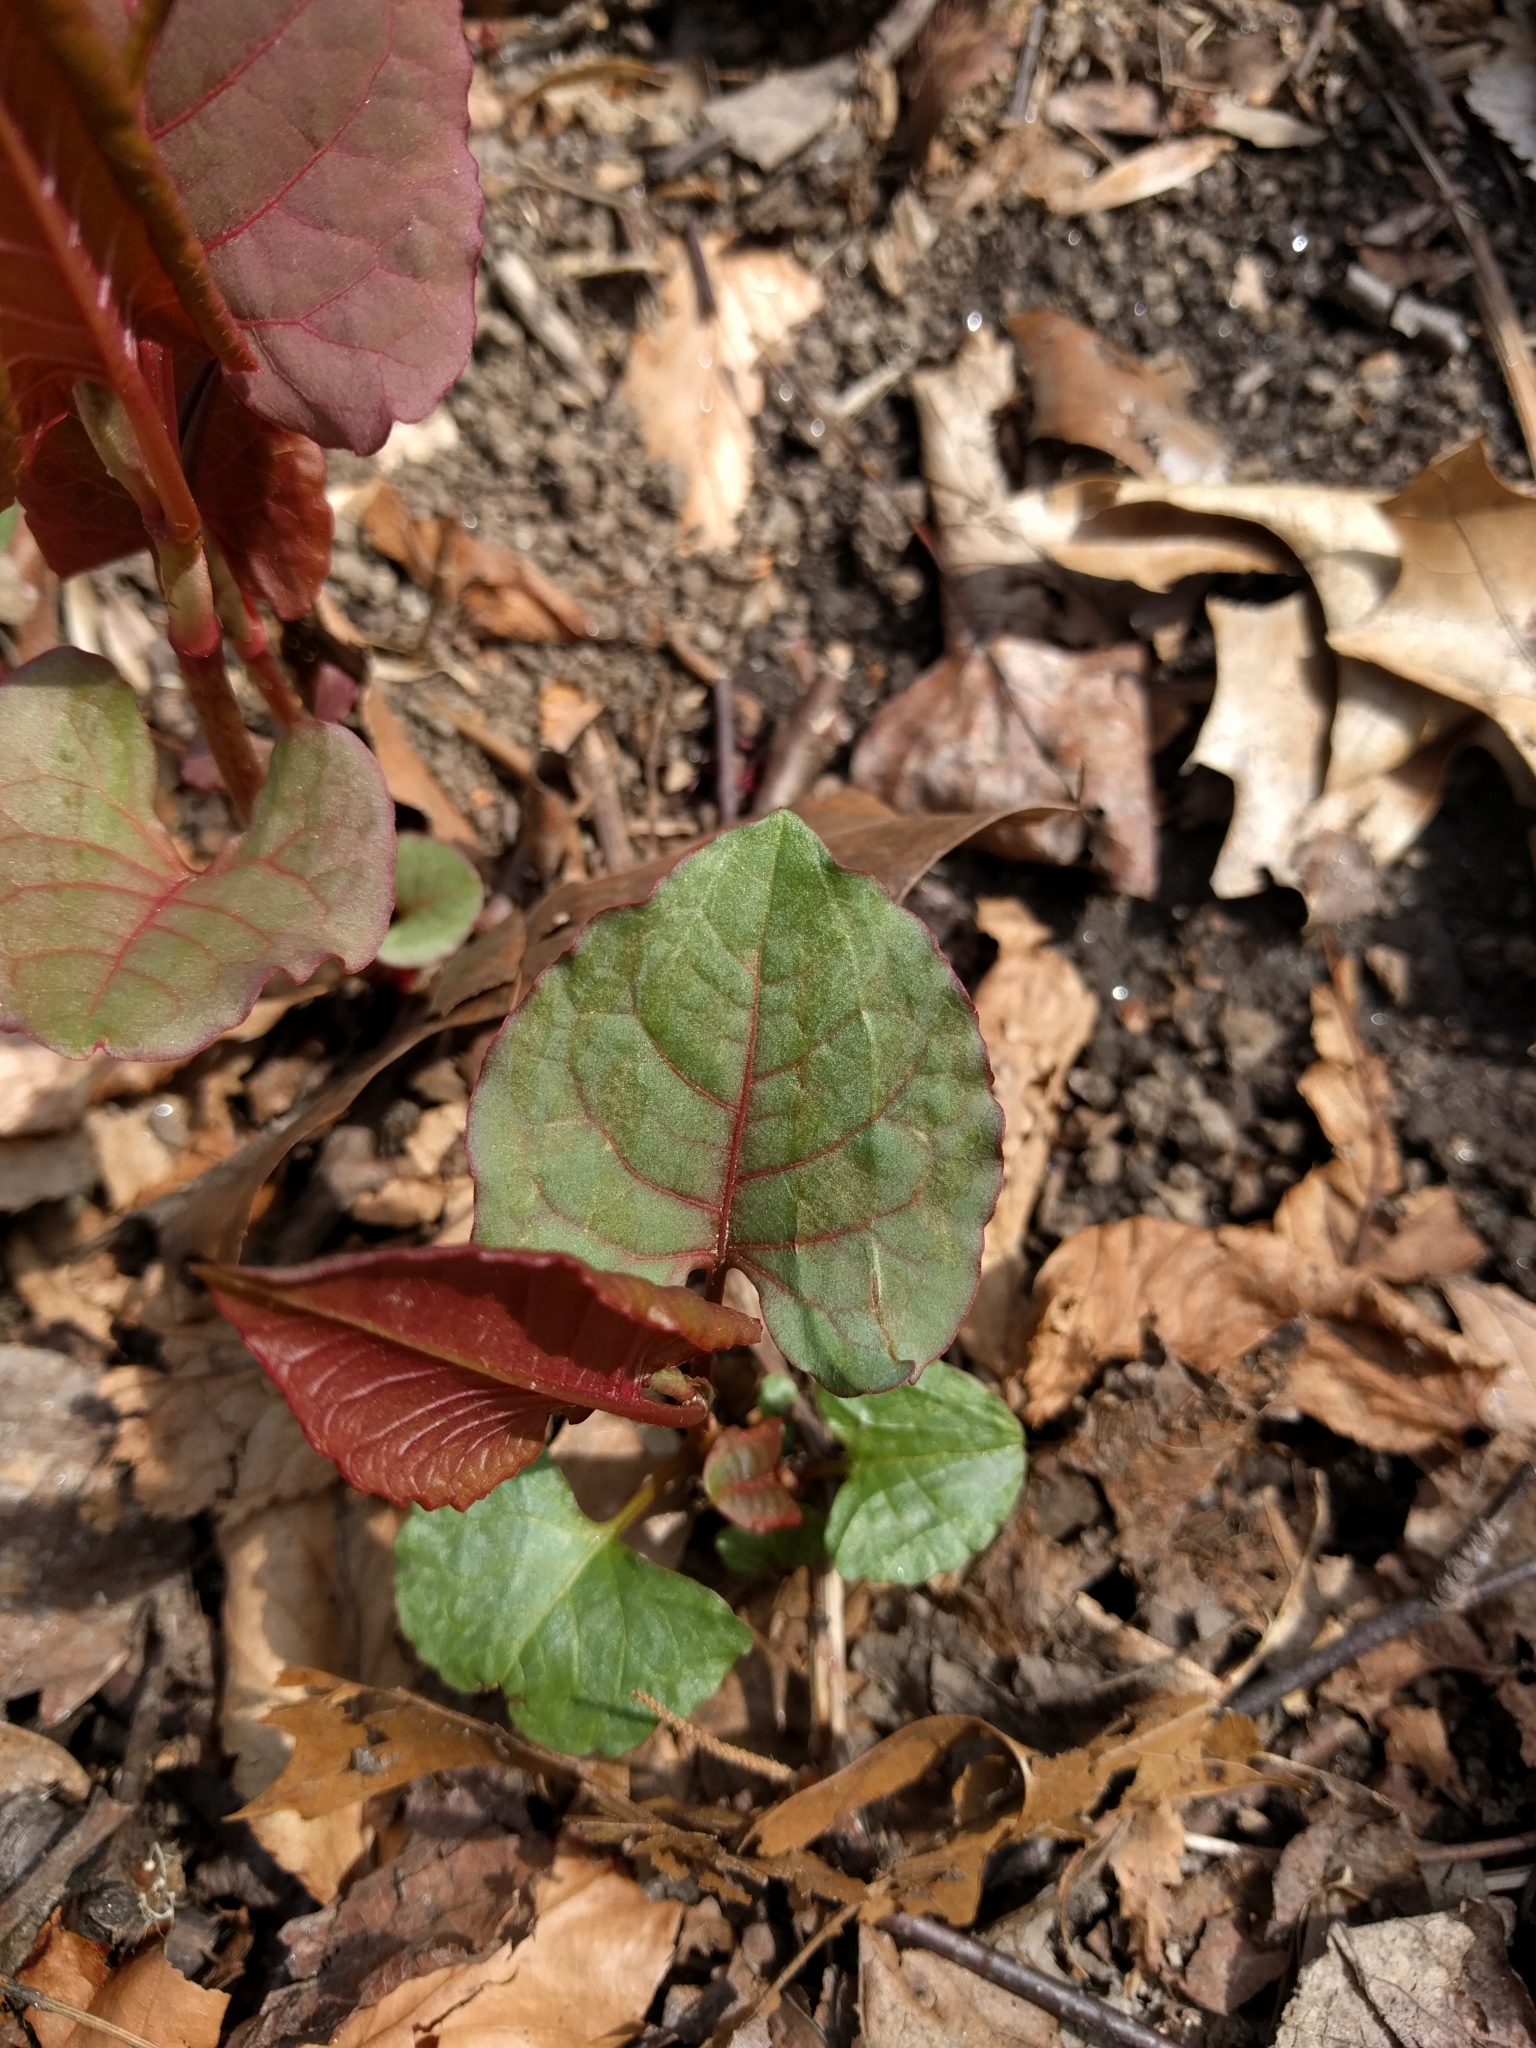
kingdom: Plantae
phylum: Tracheophyta
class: Magnoliopsida
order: Caryophyllales
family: Polygonaceae
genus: Reynoutria
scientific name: Reynoutria japonica
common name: Japanese knotweed
